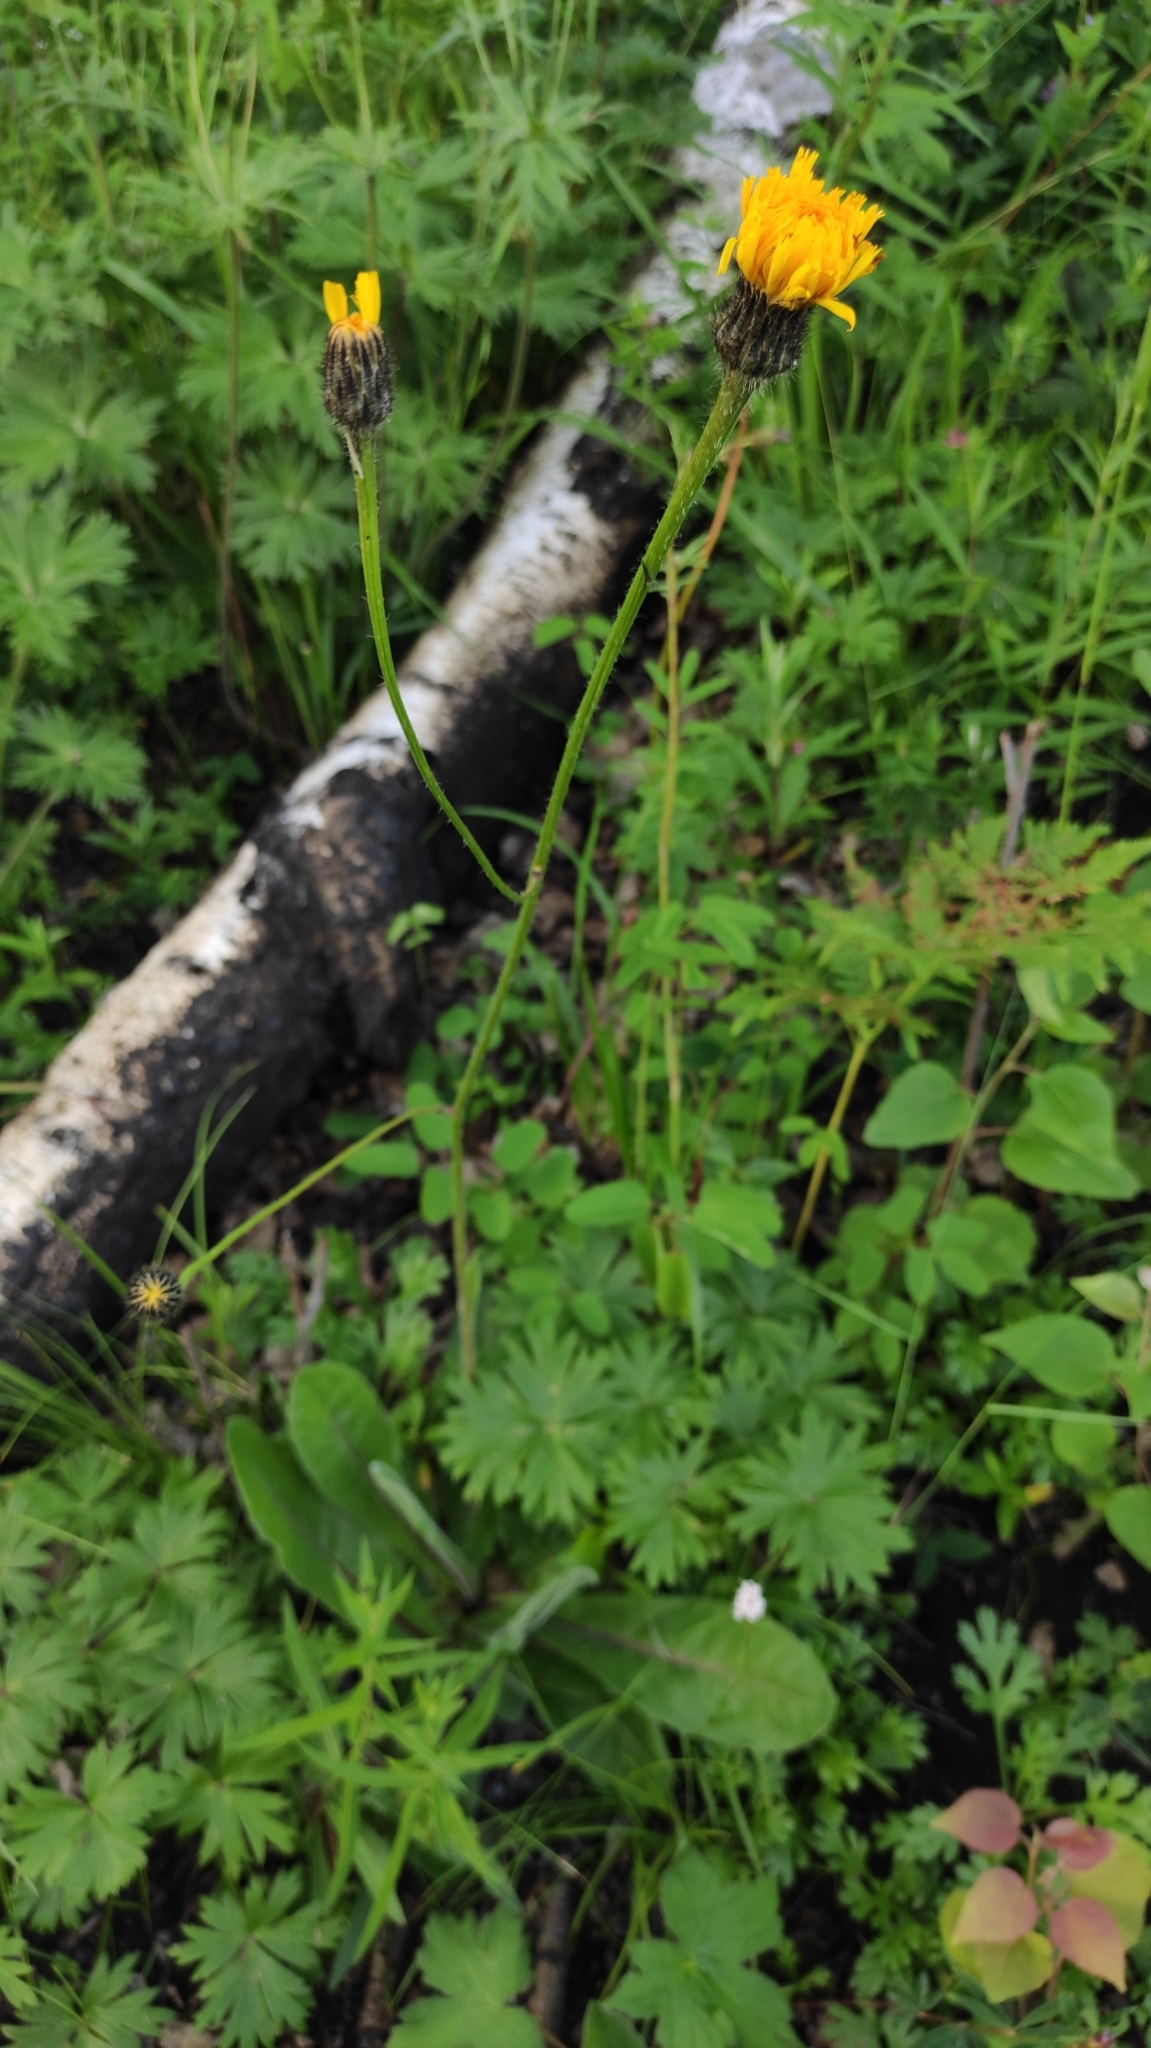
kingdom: Plantae
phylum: Tracheophyta
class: Magnoliopsida
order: Asterales
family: Asteraceae
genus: Trommsdorffia
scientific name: Trommsdorffia maculata
